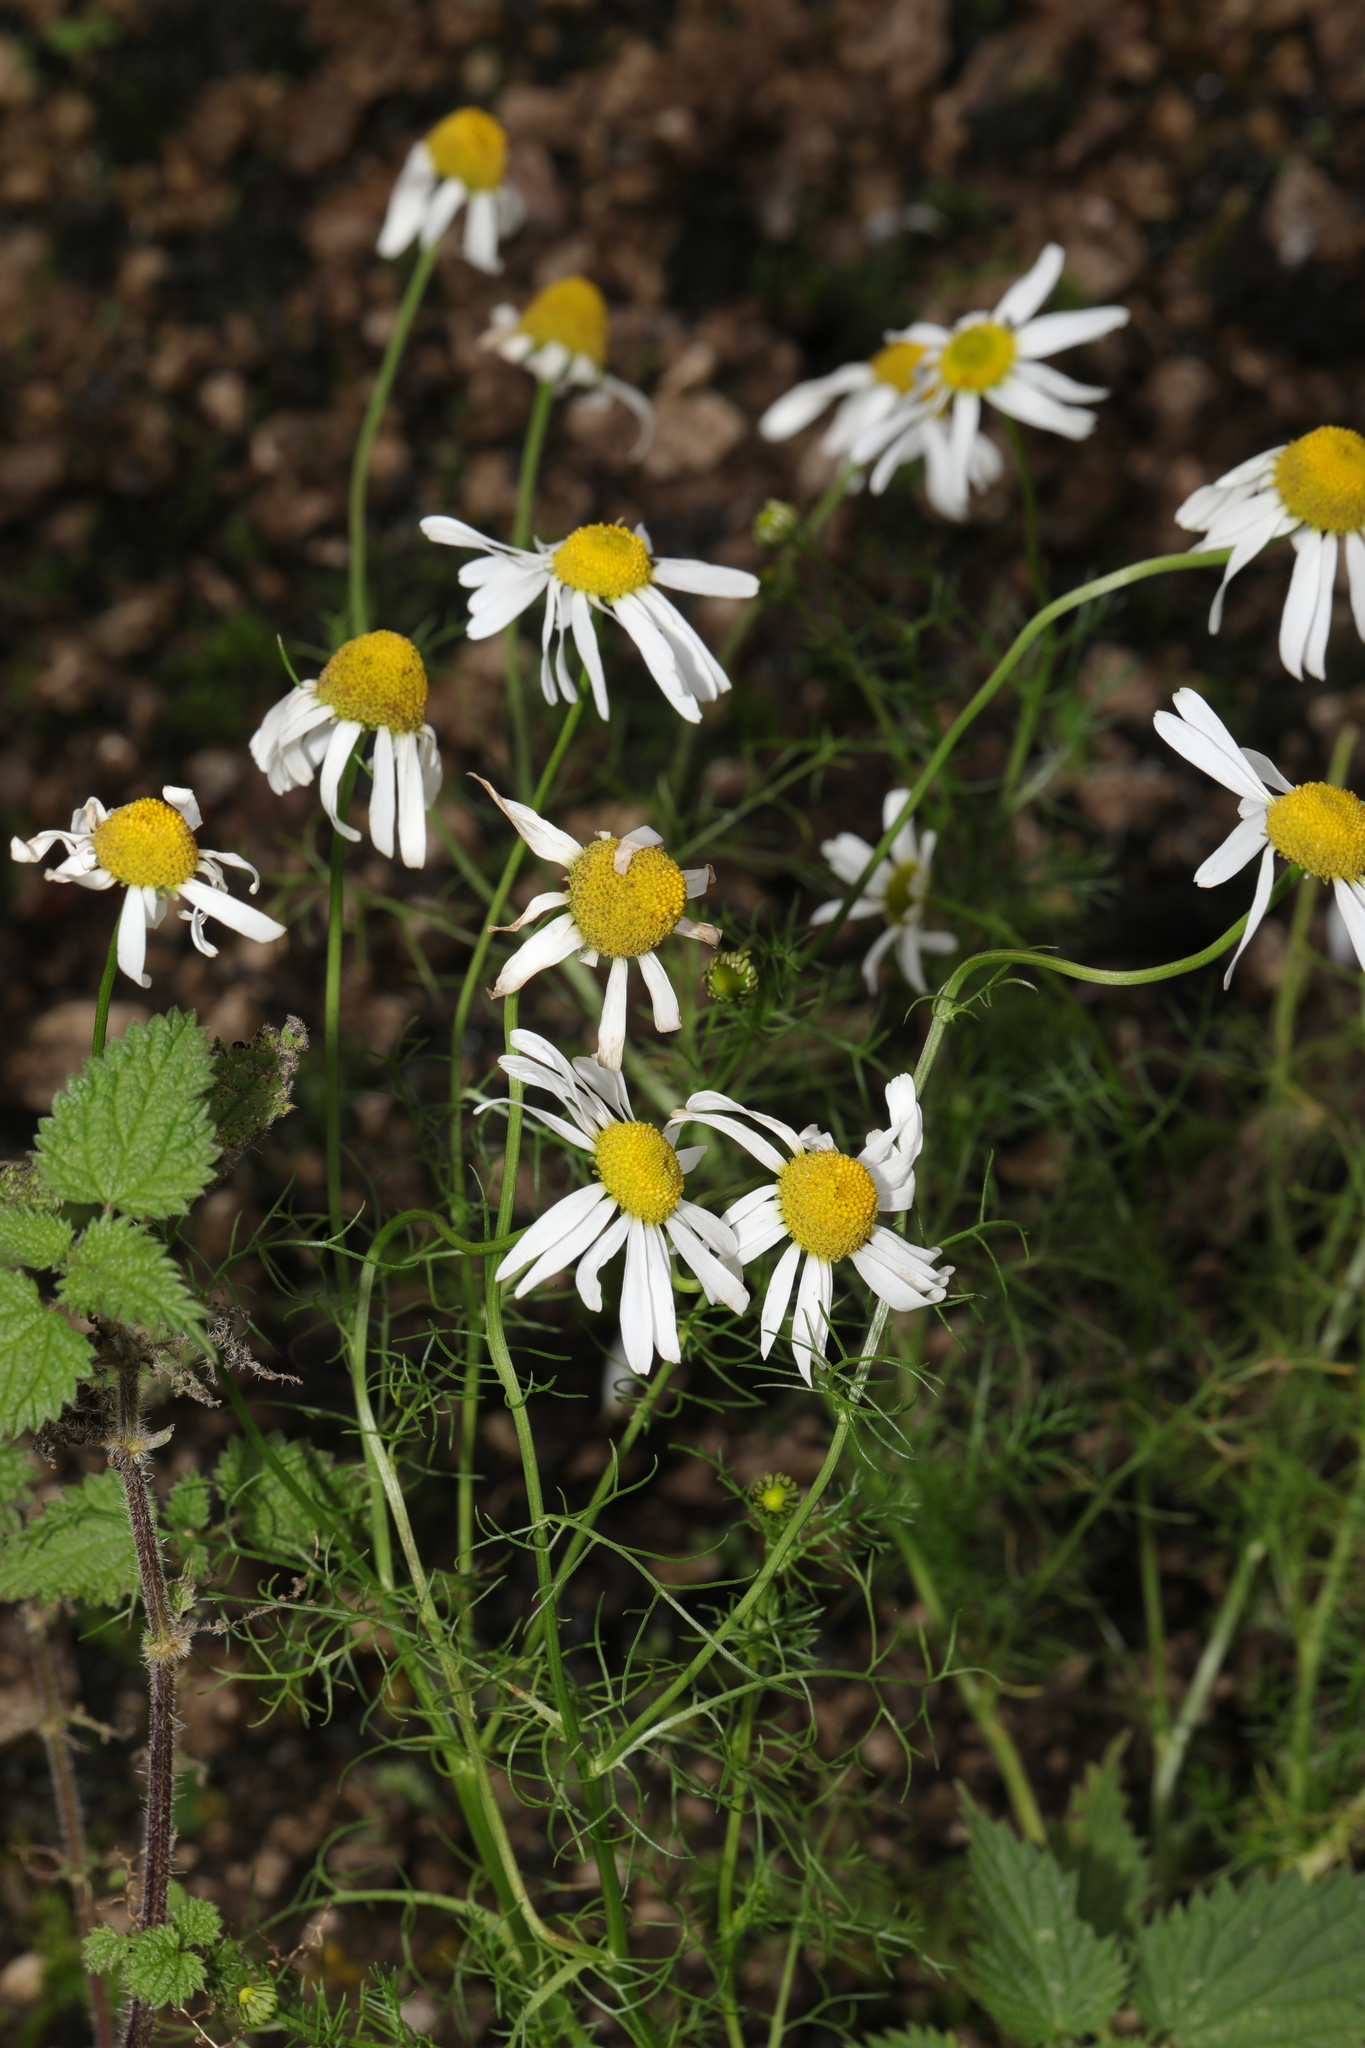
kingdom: Plantae
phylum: Tracheophyta
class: Magnoliopsida
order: Asterales
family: Asteraceae
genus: Tripleurospermum
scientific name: Tripleurospermum inodorum
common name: Scentless mayweed
